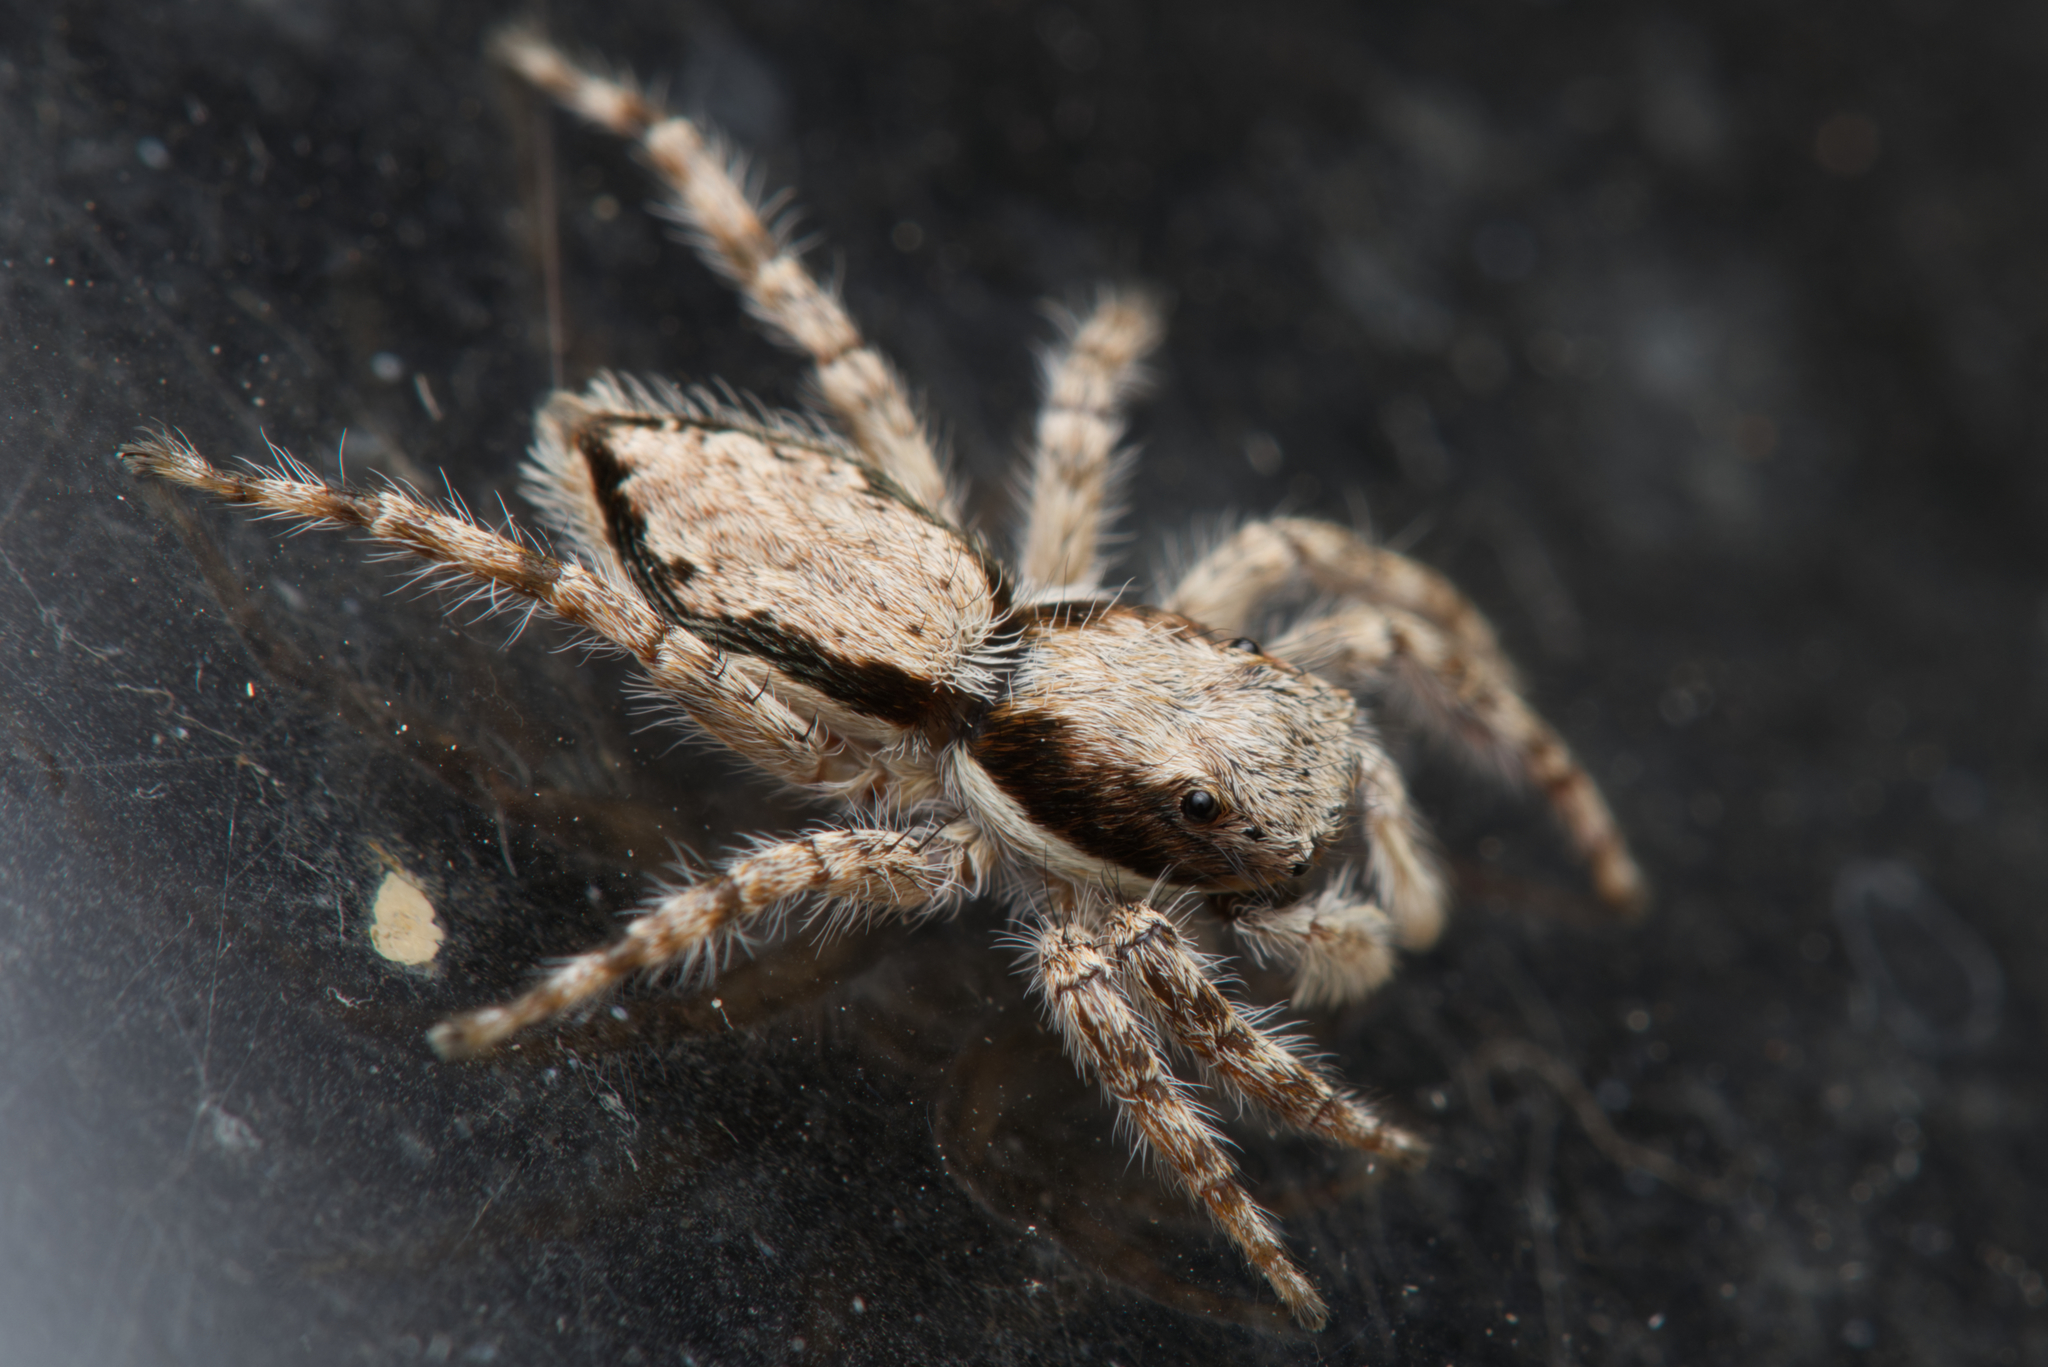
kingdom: Animalia
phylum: Arthropoda
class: Arachnida
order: Araneae
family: Salticidae
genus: Menemerus
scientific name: Menemerus bivittatus
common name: Gray wall jumper
